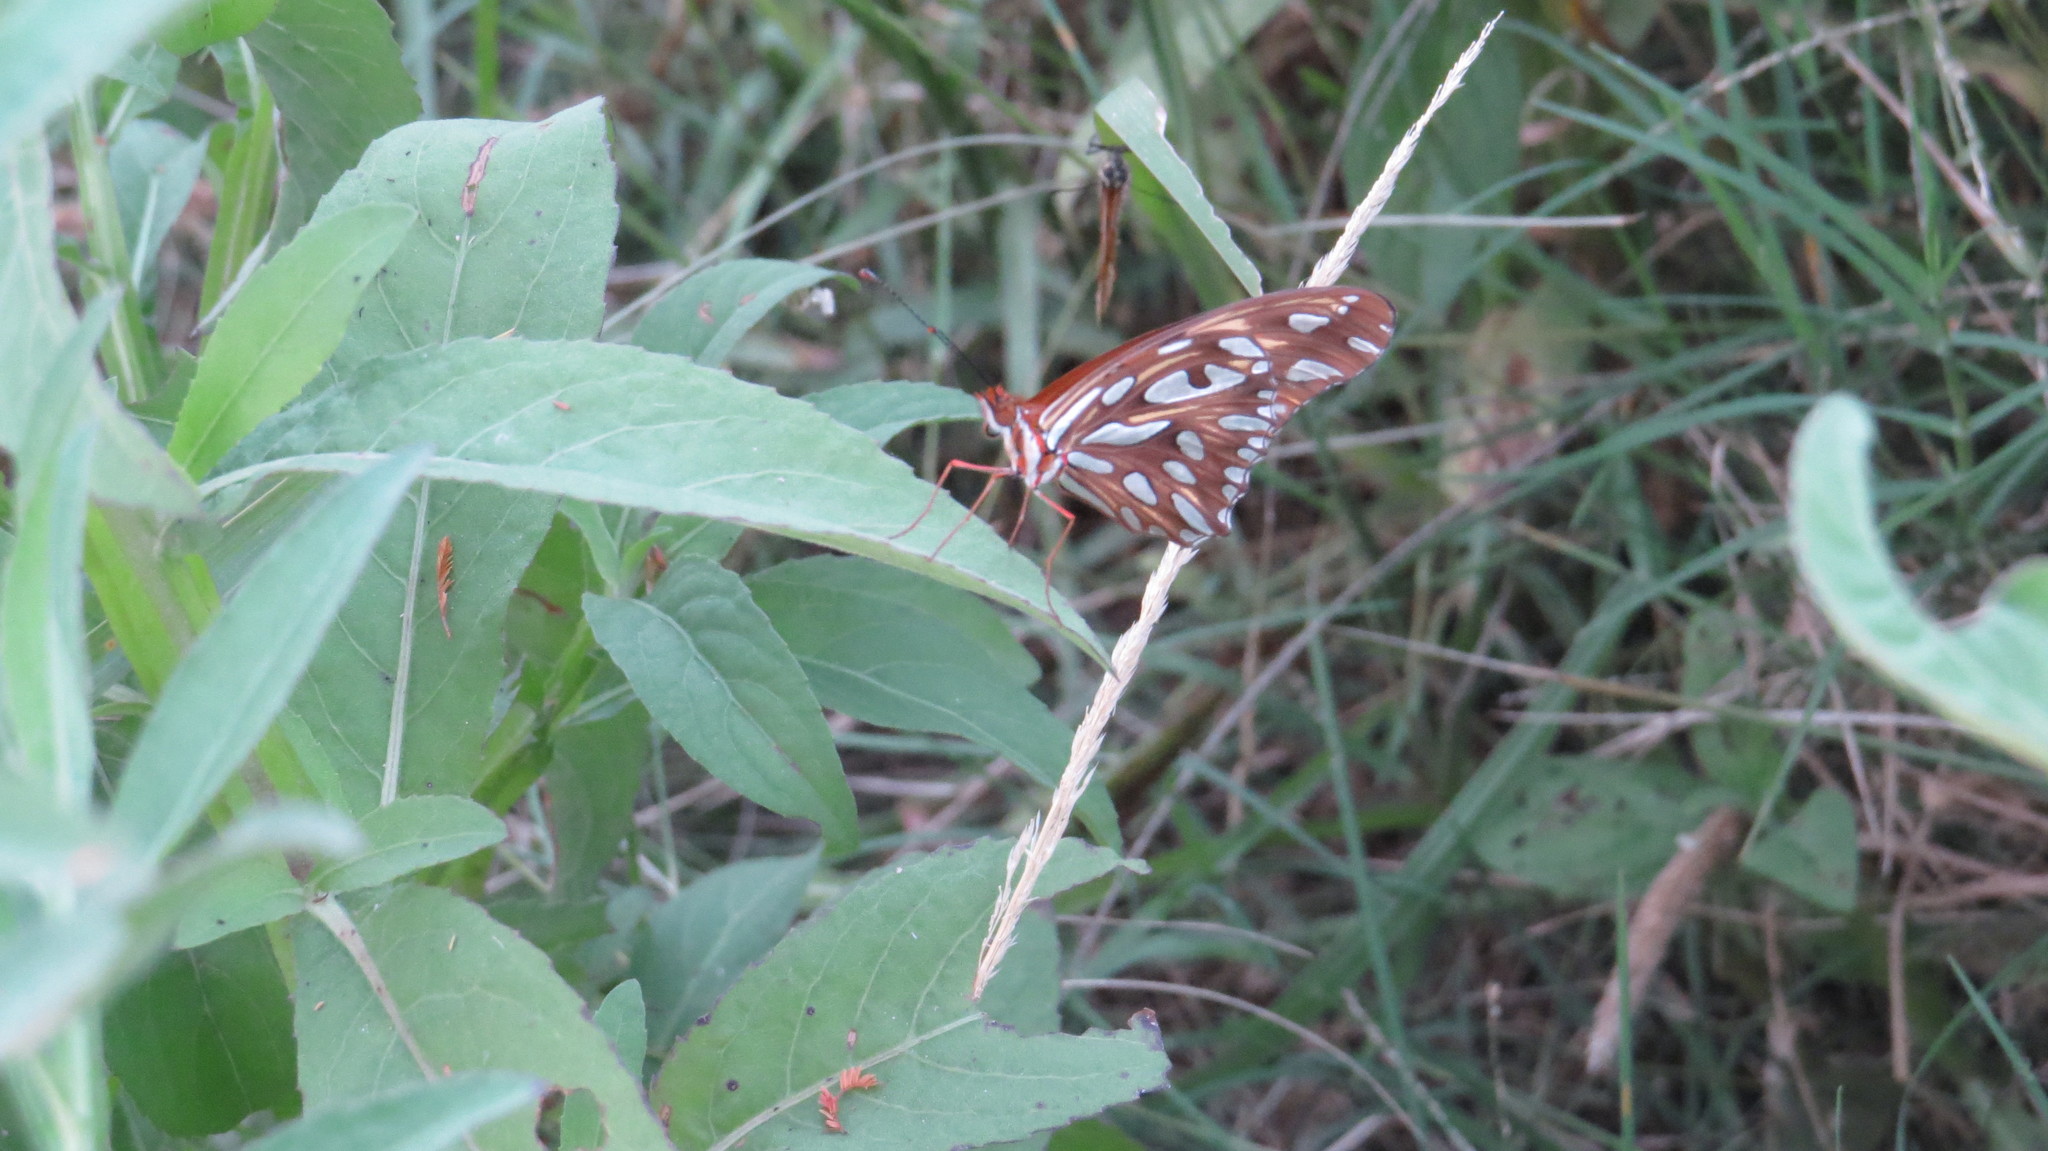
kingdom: Animalia
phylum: Arthropoda
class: Insecta
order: Lepidoptera
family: Nymphalidae
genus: Dione
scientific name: Dione vanillae
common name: Gulf fritillary
